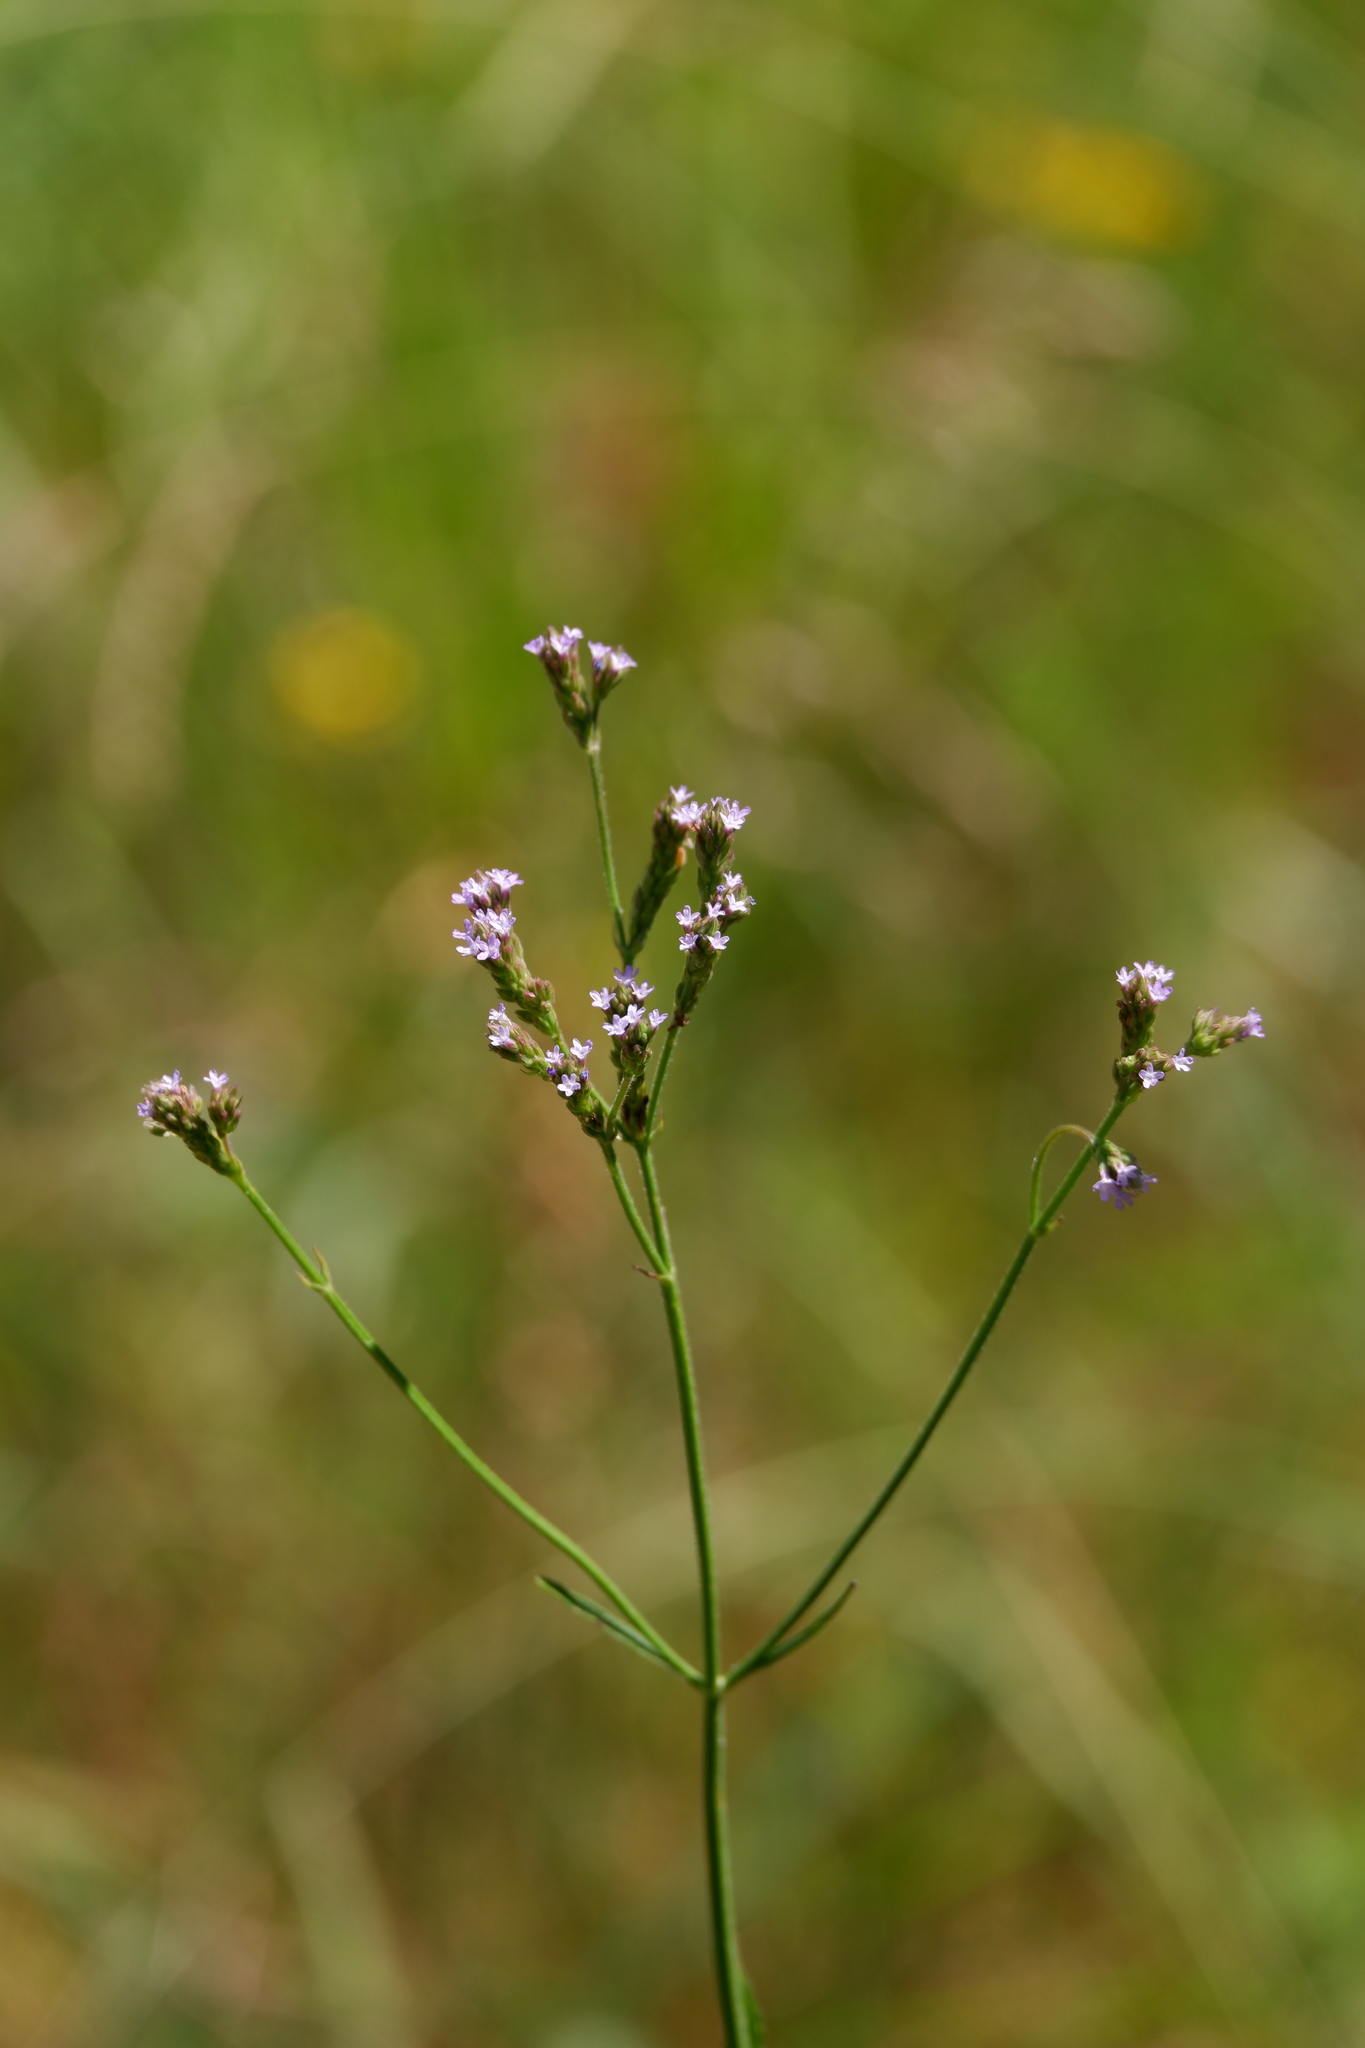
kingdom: Plantae
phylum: Tracheophyta
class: Magnoliopsida
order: Lamiales
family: Verbenaceae
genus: Verbena
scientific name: Verbena brasiliensis
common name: Brazilian vervain
